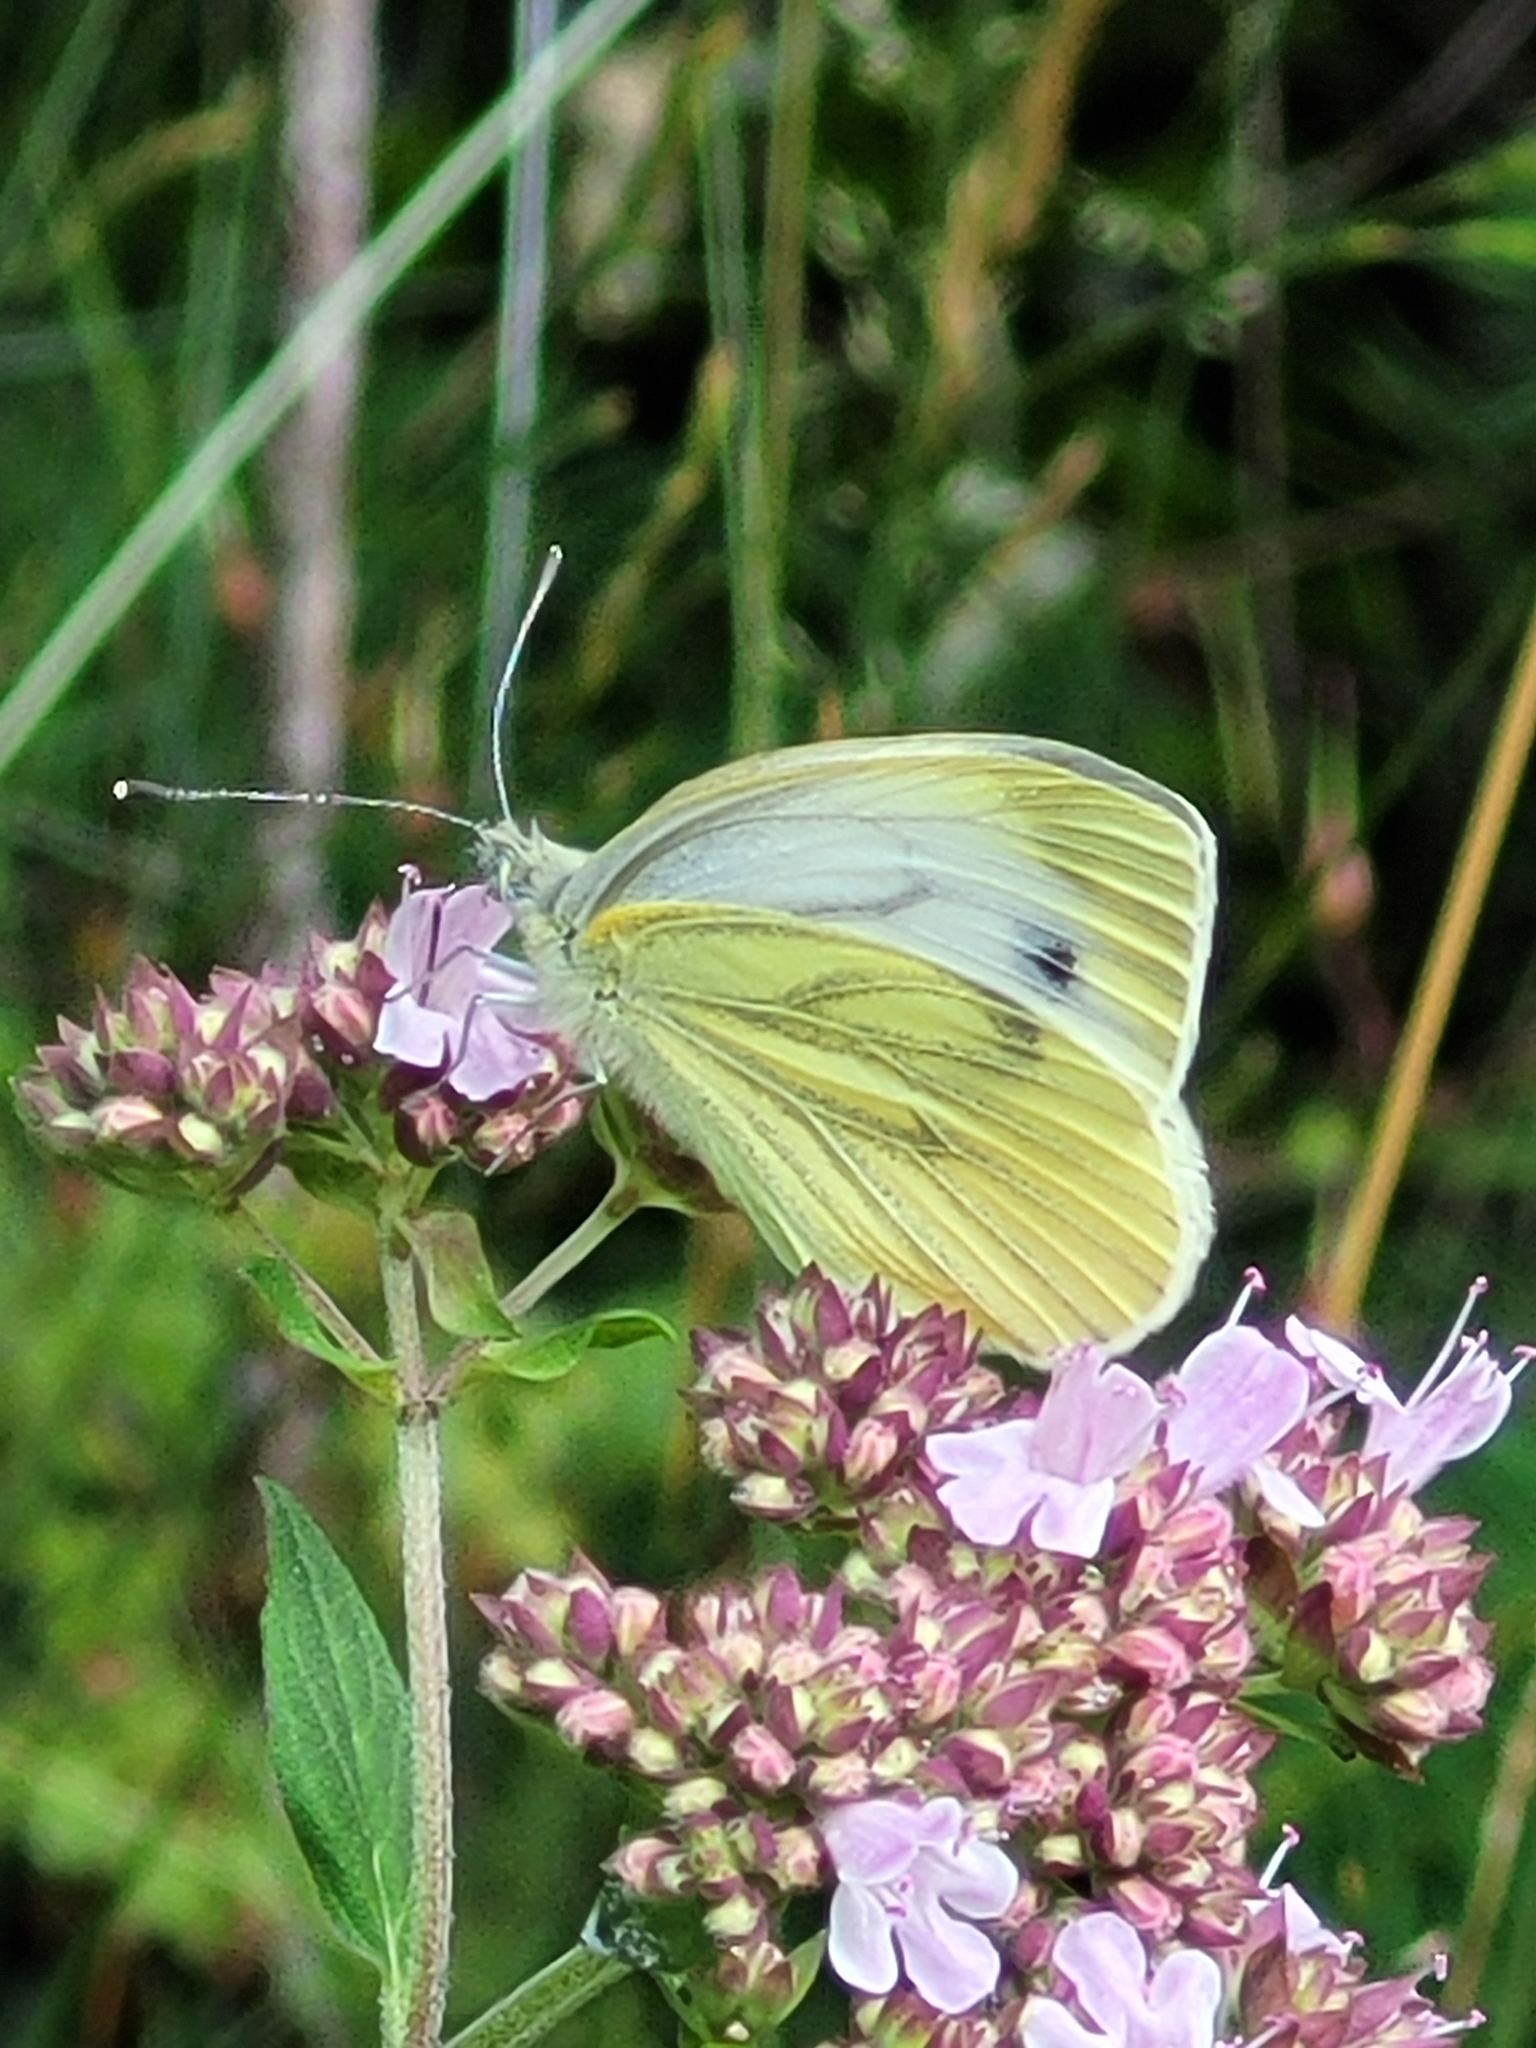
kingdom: Animalia
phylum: Arthropoda
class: Insecta
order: Lepidoptera
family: Pieridae
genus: Pieris
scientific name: Pieris napi
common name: Green-veined white
